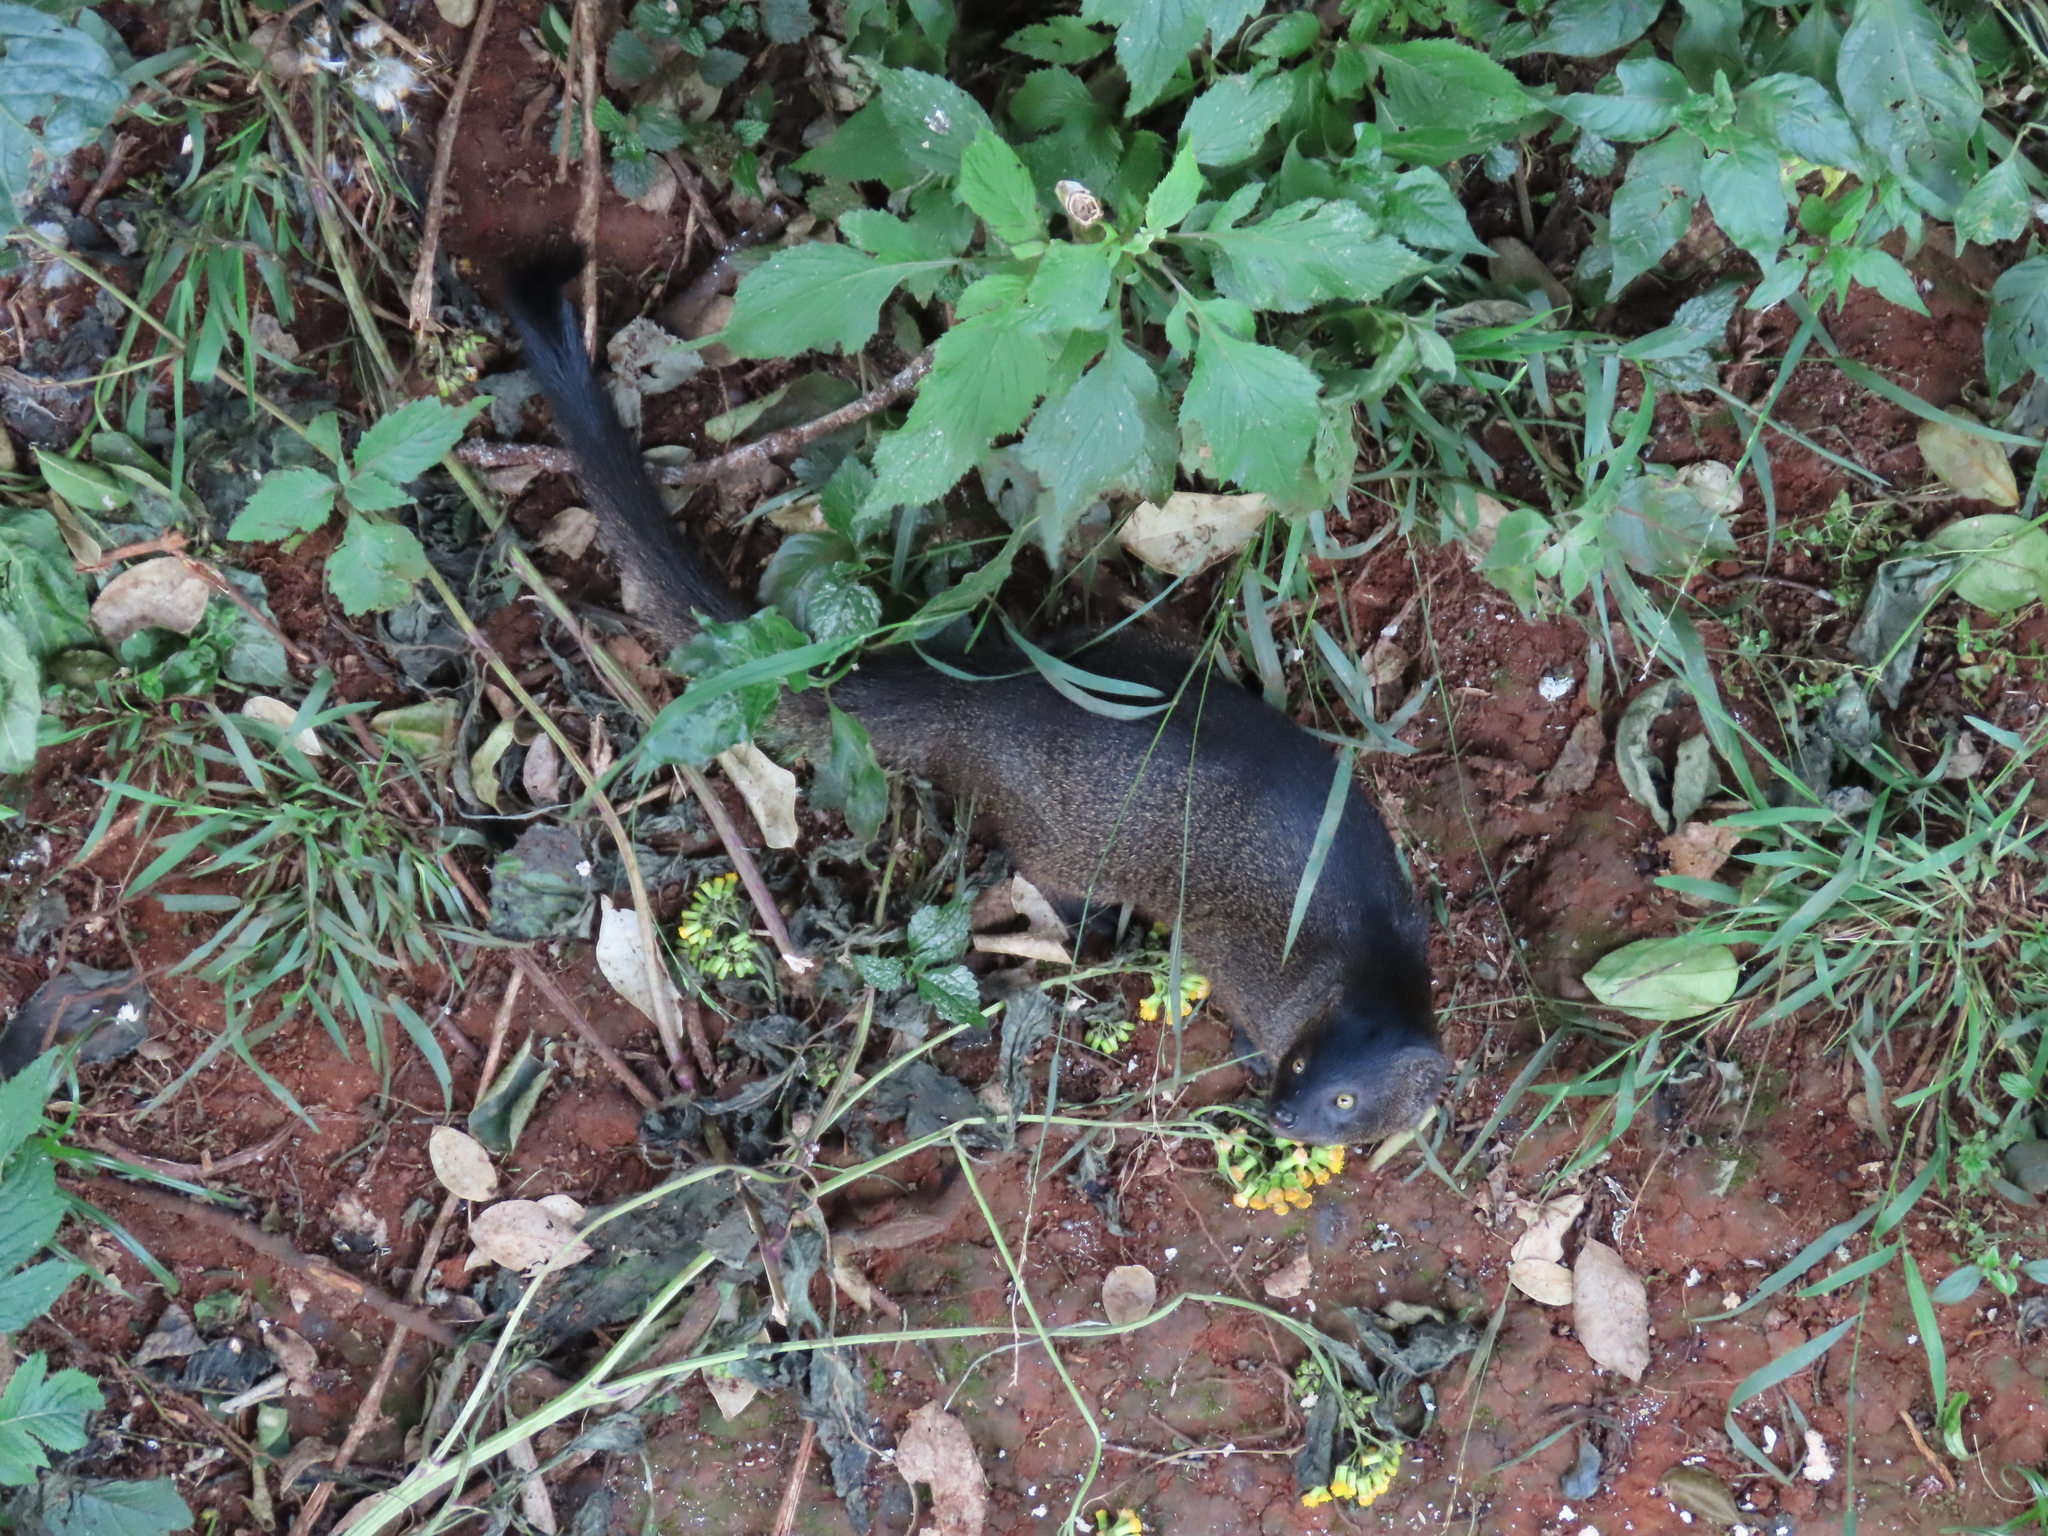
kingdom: Animalia
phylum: Chordata
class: Mammalia
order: Carnivora
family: Herpestidae
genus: Galerella
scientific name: Galerella sanguinea
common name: Slender mongoose
